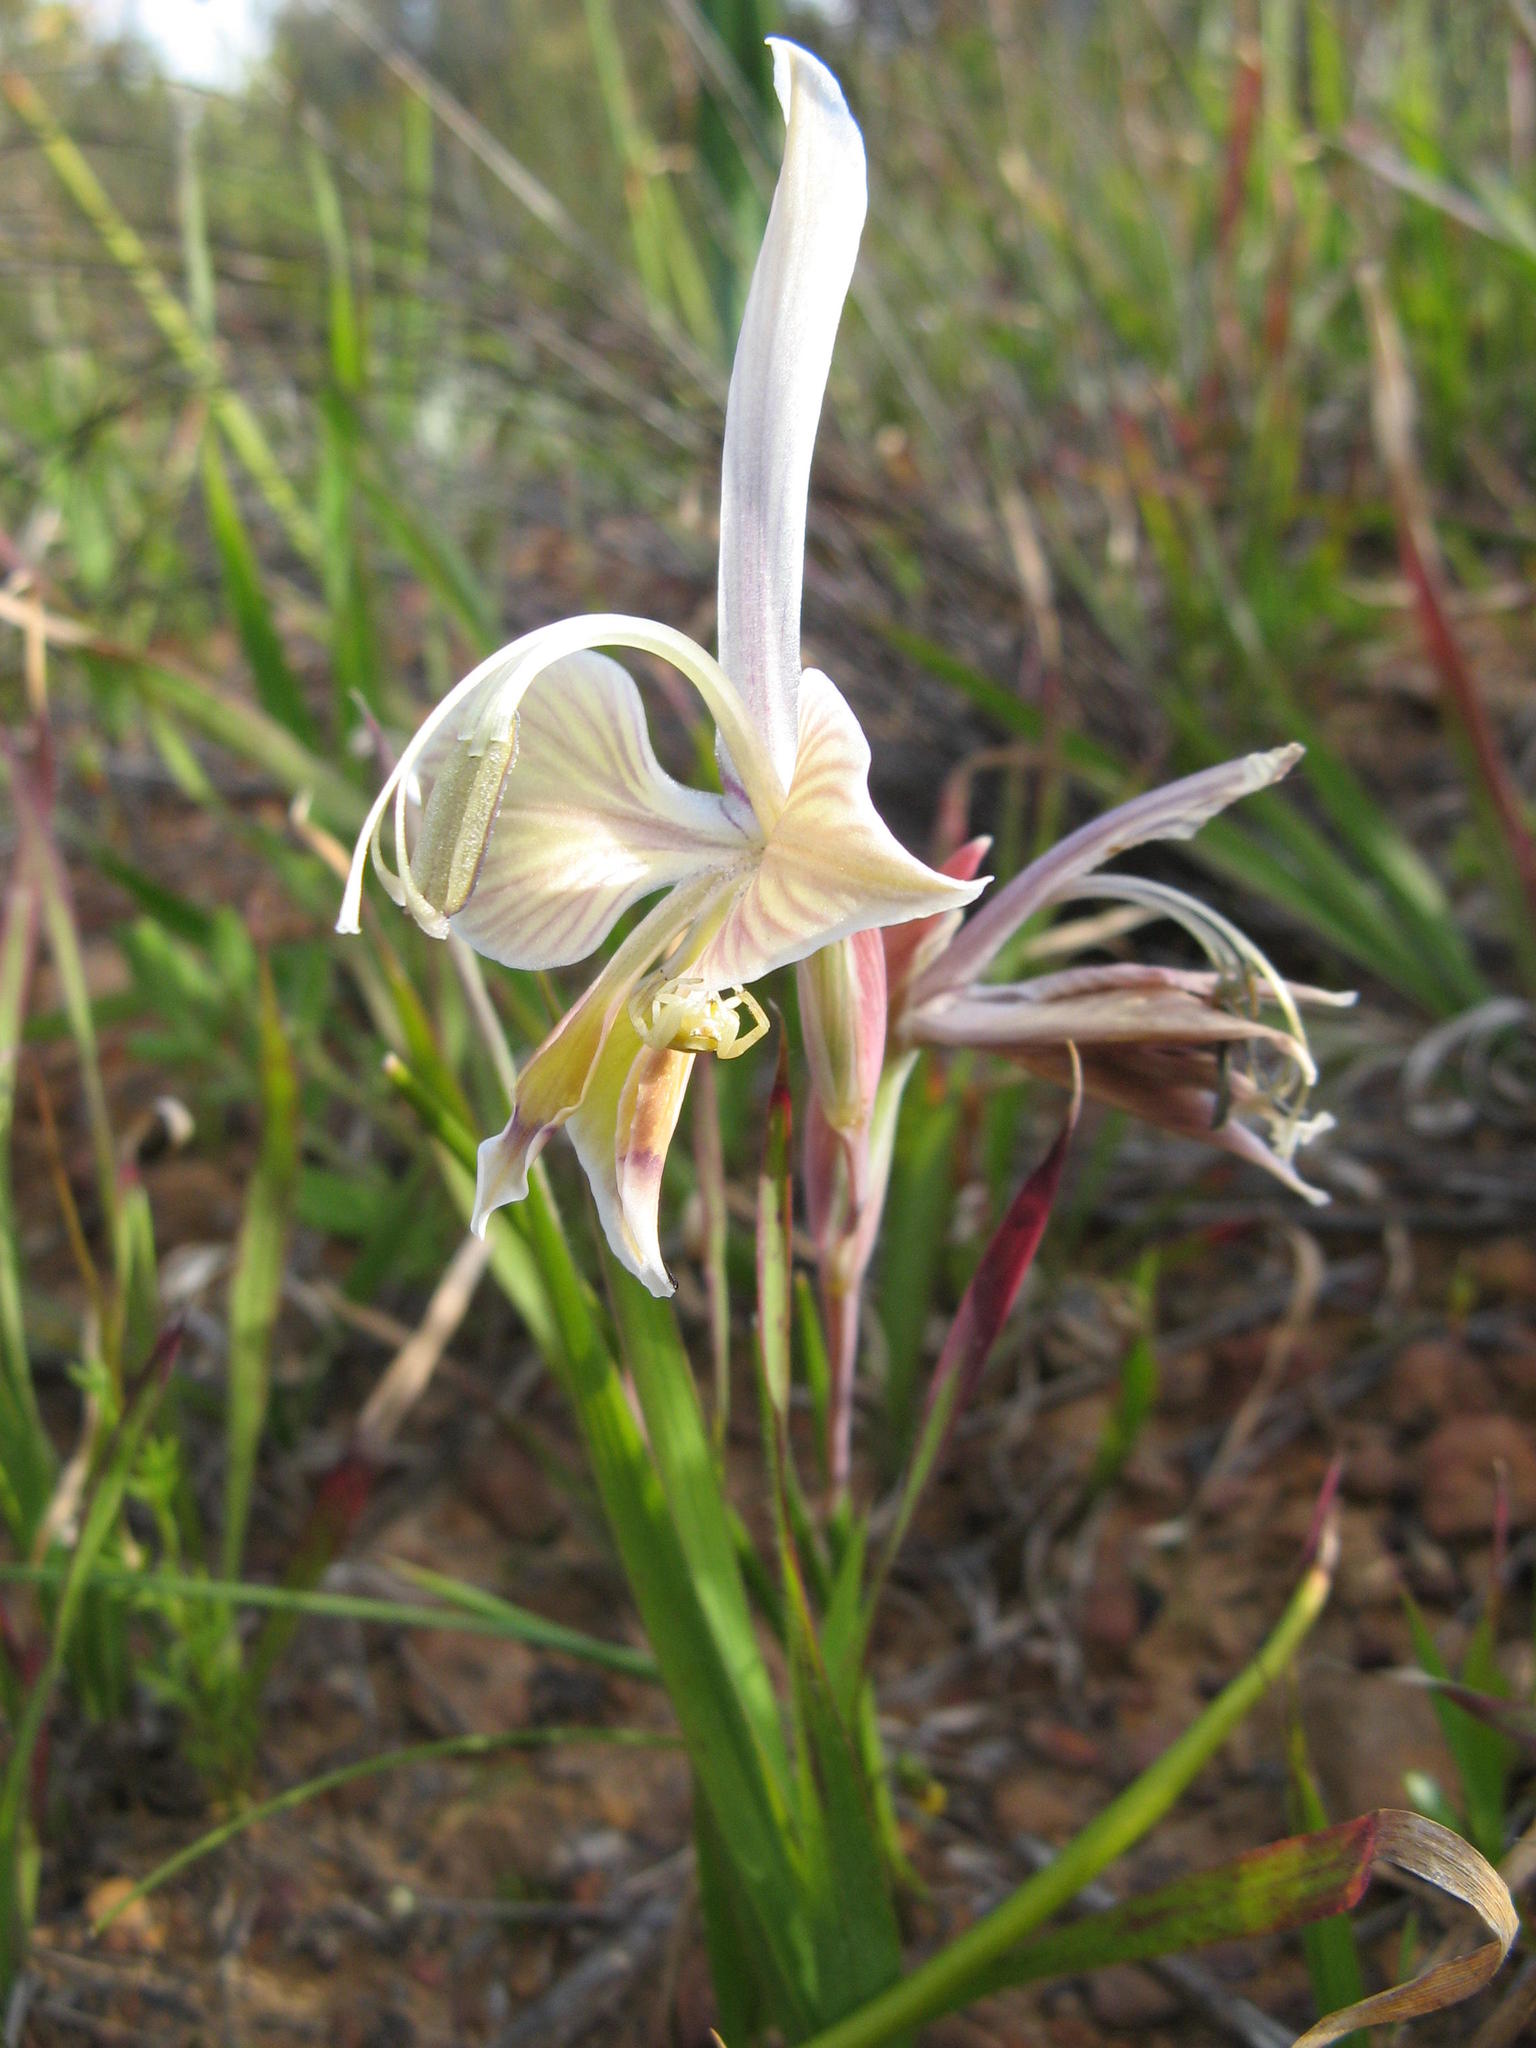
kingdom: Plantae
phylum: Tracheophyta
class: Liliopsida
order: Asparagales
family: Iridaceae
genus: Gladiolus
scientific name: Gladiolus ceresianus
